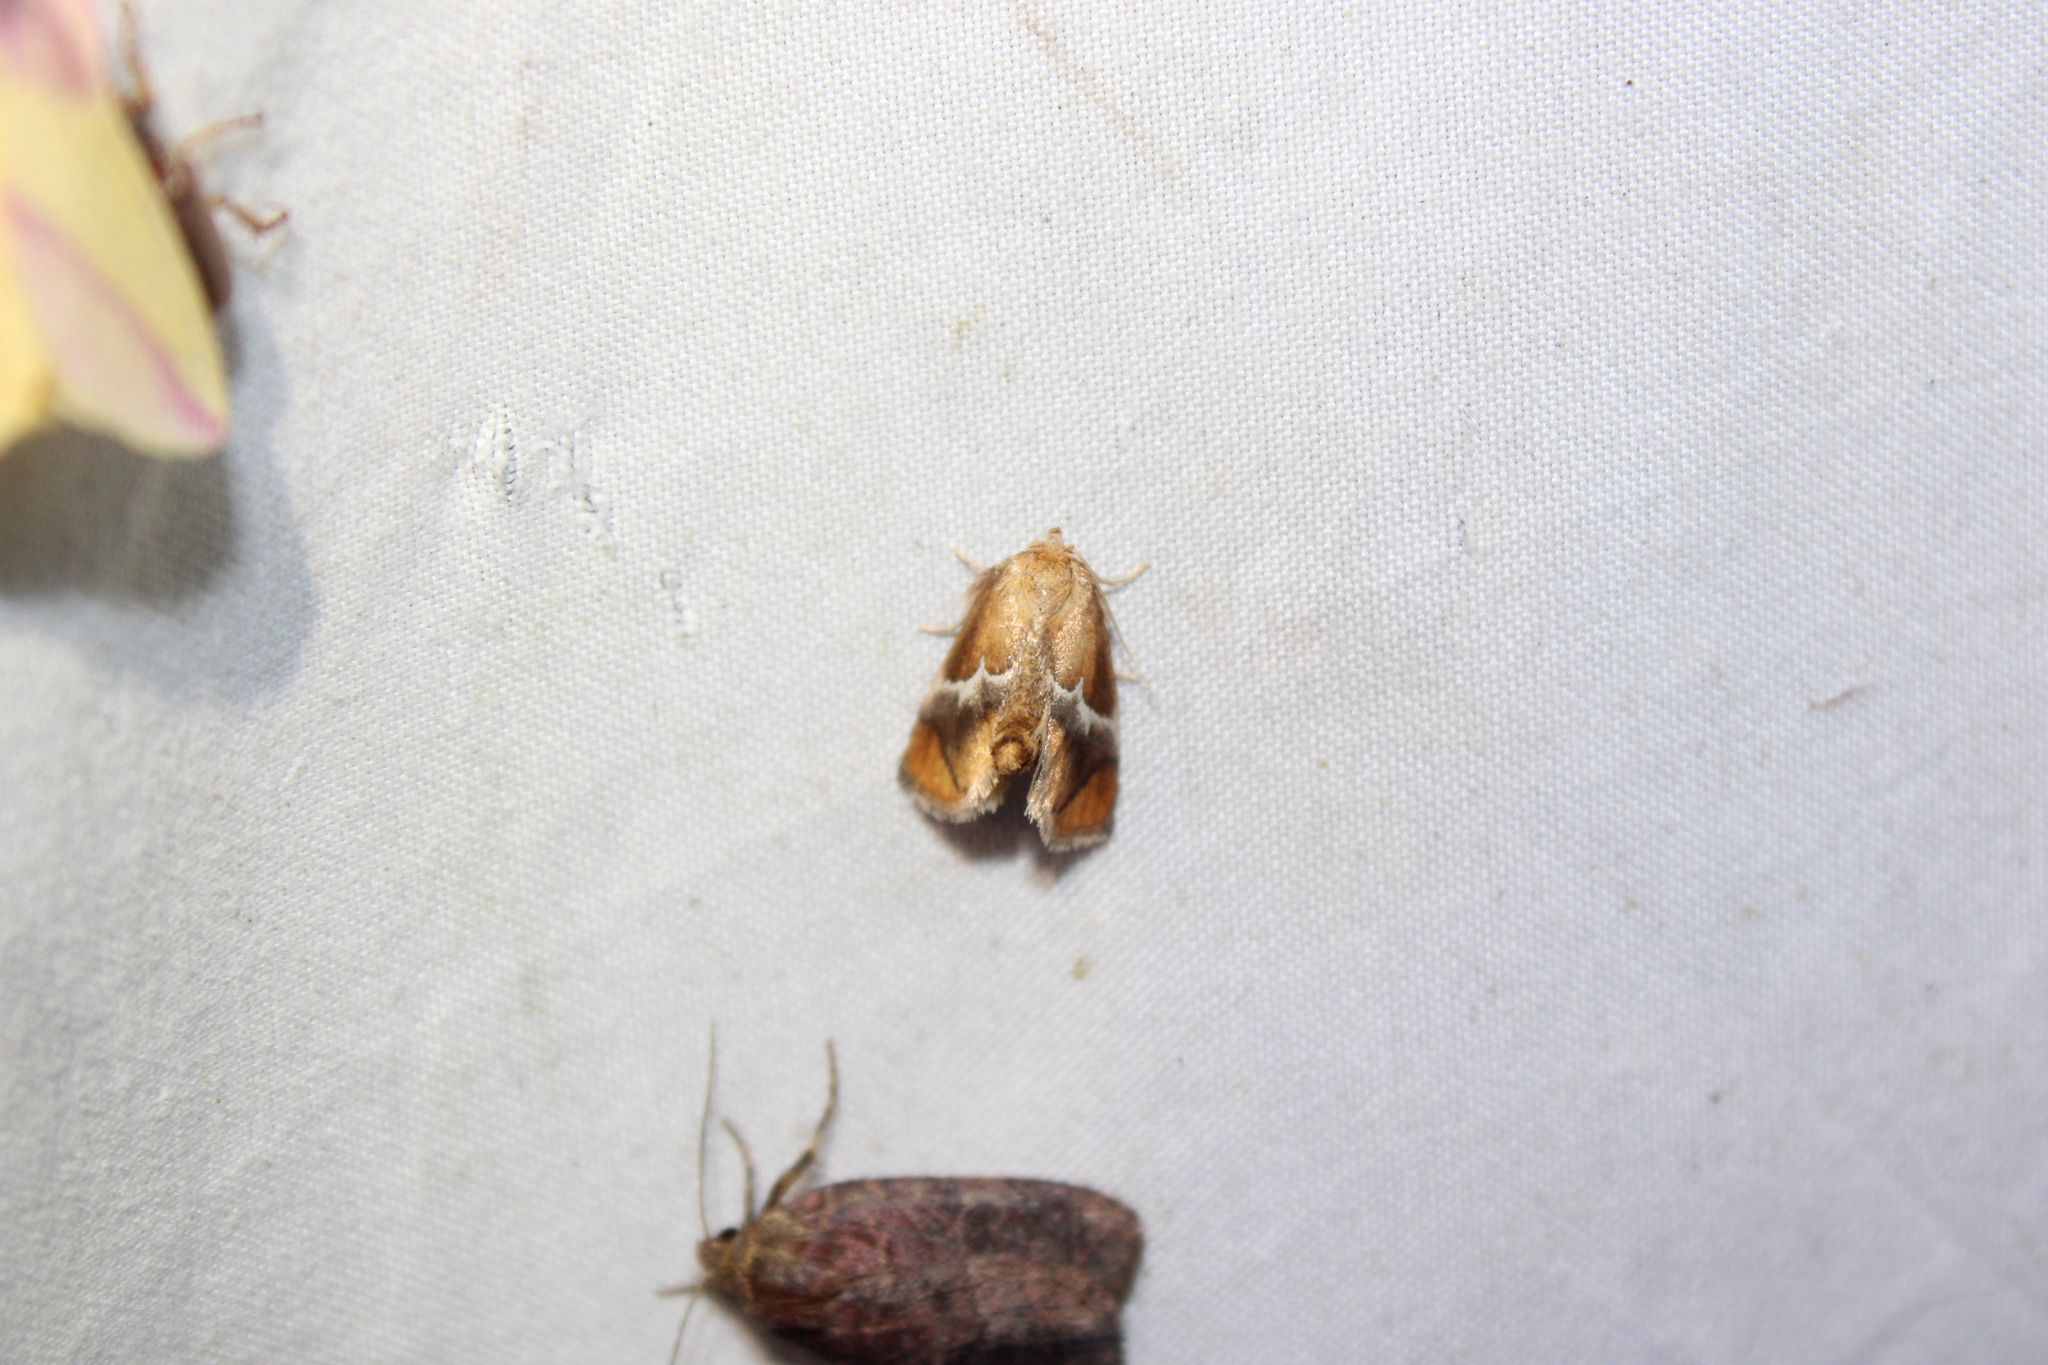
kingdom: Animalia
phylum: Arthropoda
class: Insecta
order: Lepidoptera
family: Limacodidae
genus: Lithacodes
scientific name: Lithacodes fasciola
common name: Yellow-shouldered slug moth
